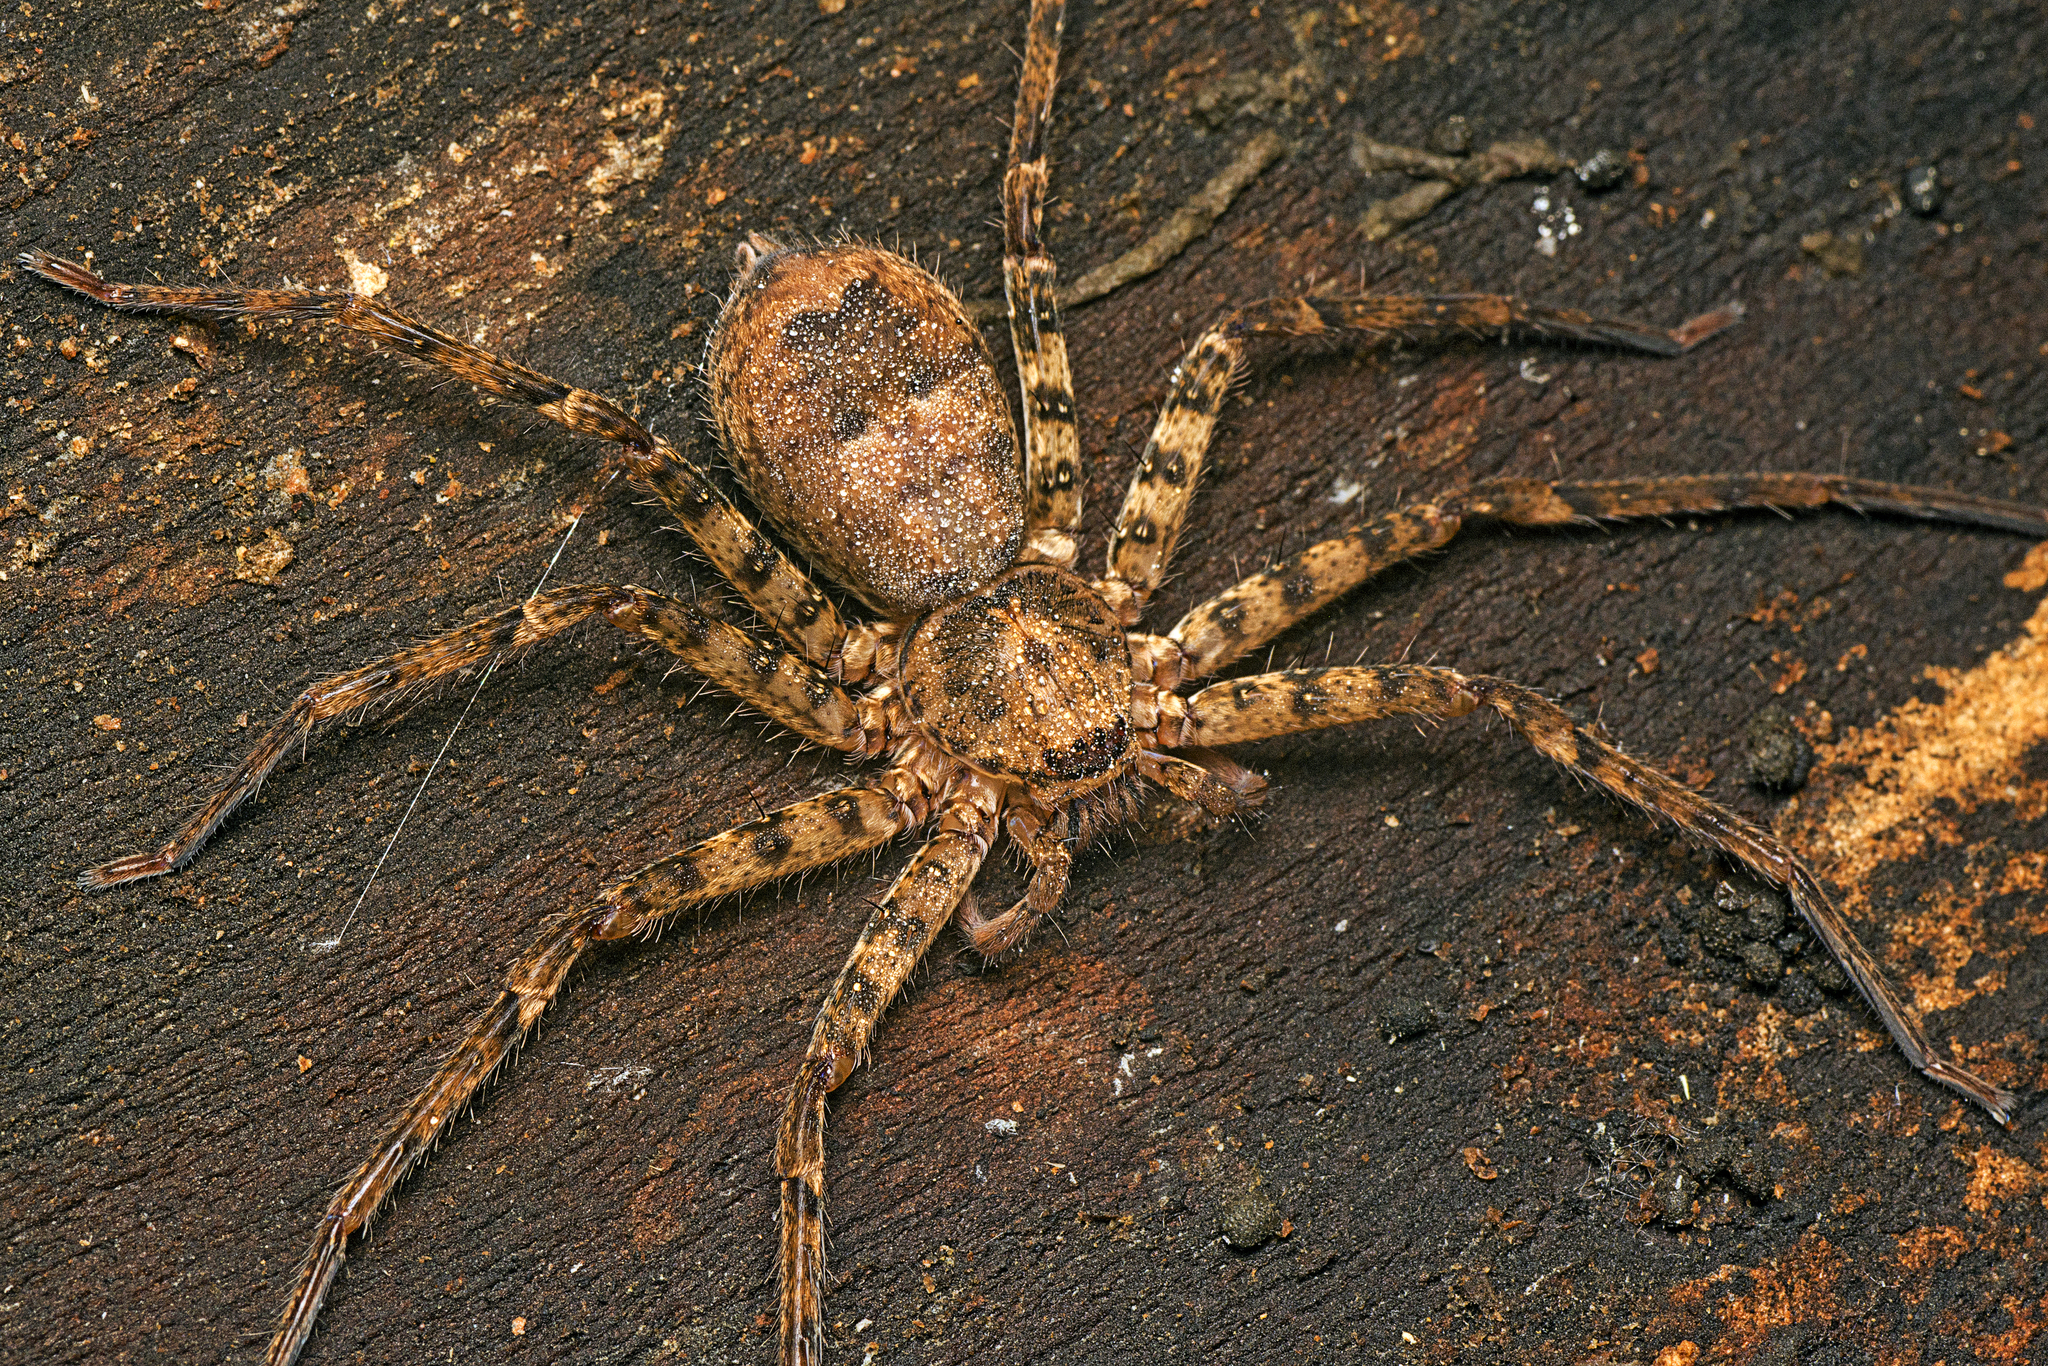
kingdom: Animalia
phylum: Arthropoda
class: Arachnida
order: Araneae
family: Sparassidae
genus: Heteropoda
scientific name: Heteropoda procera
